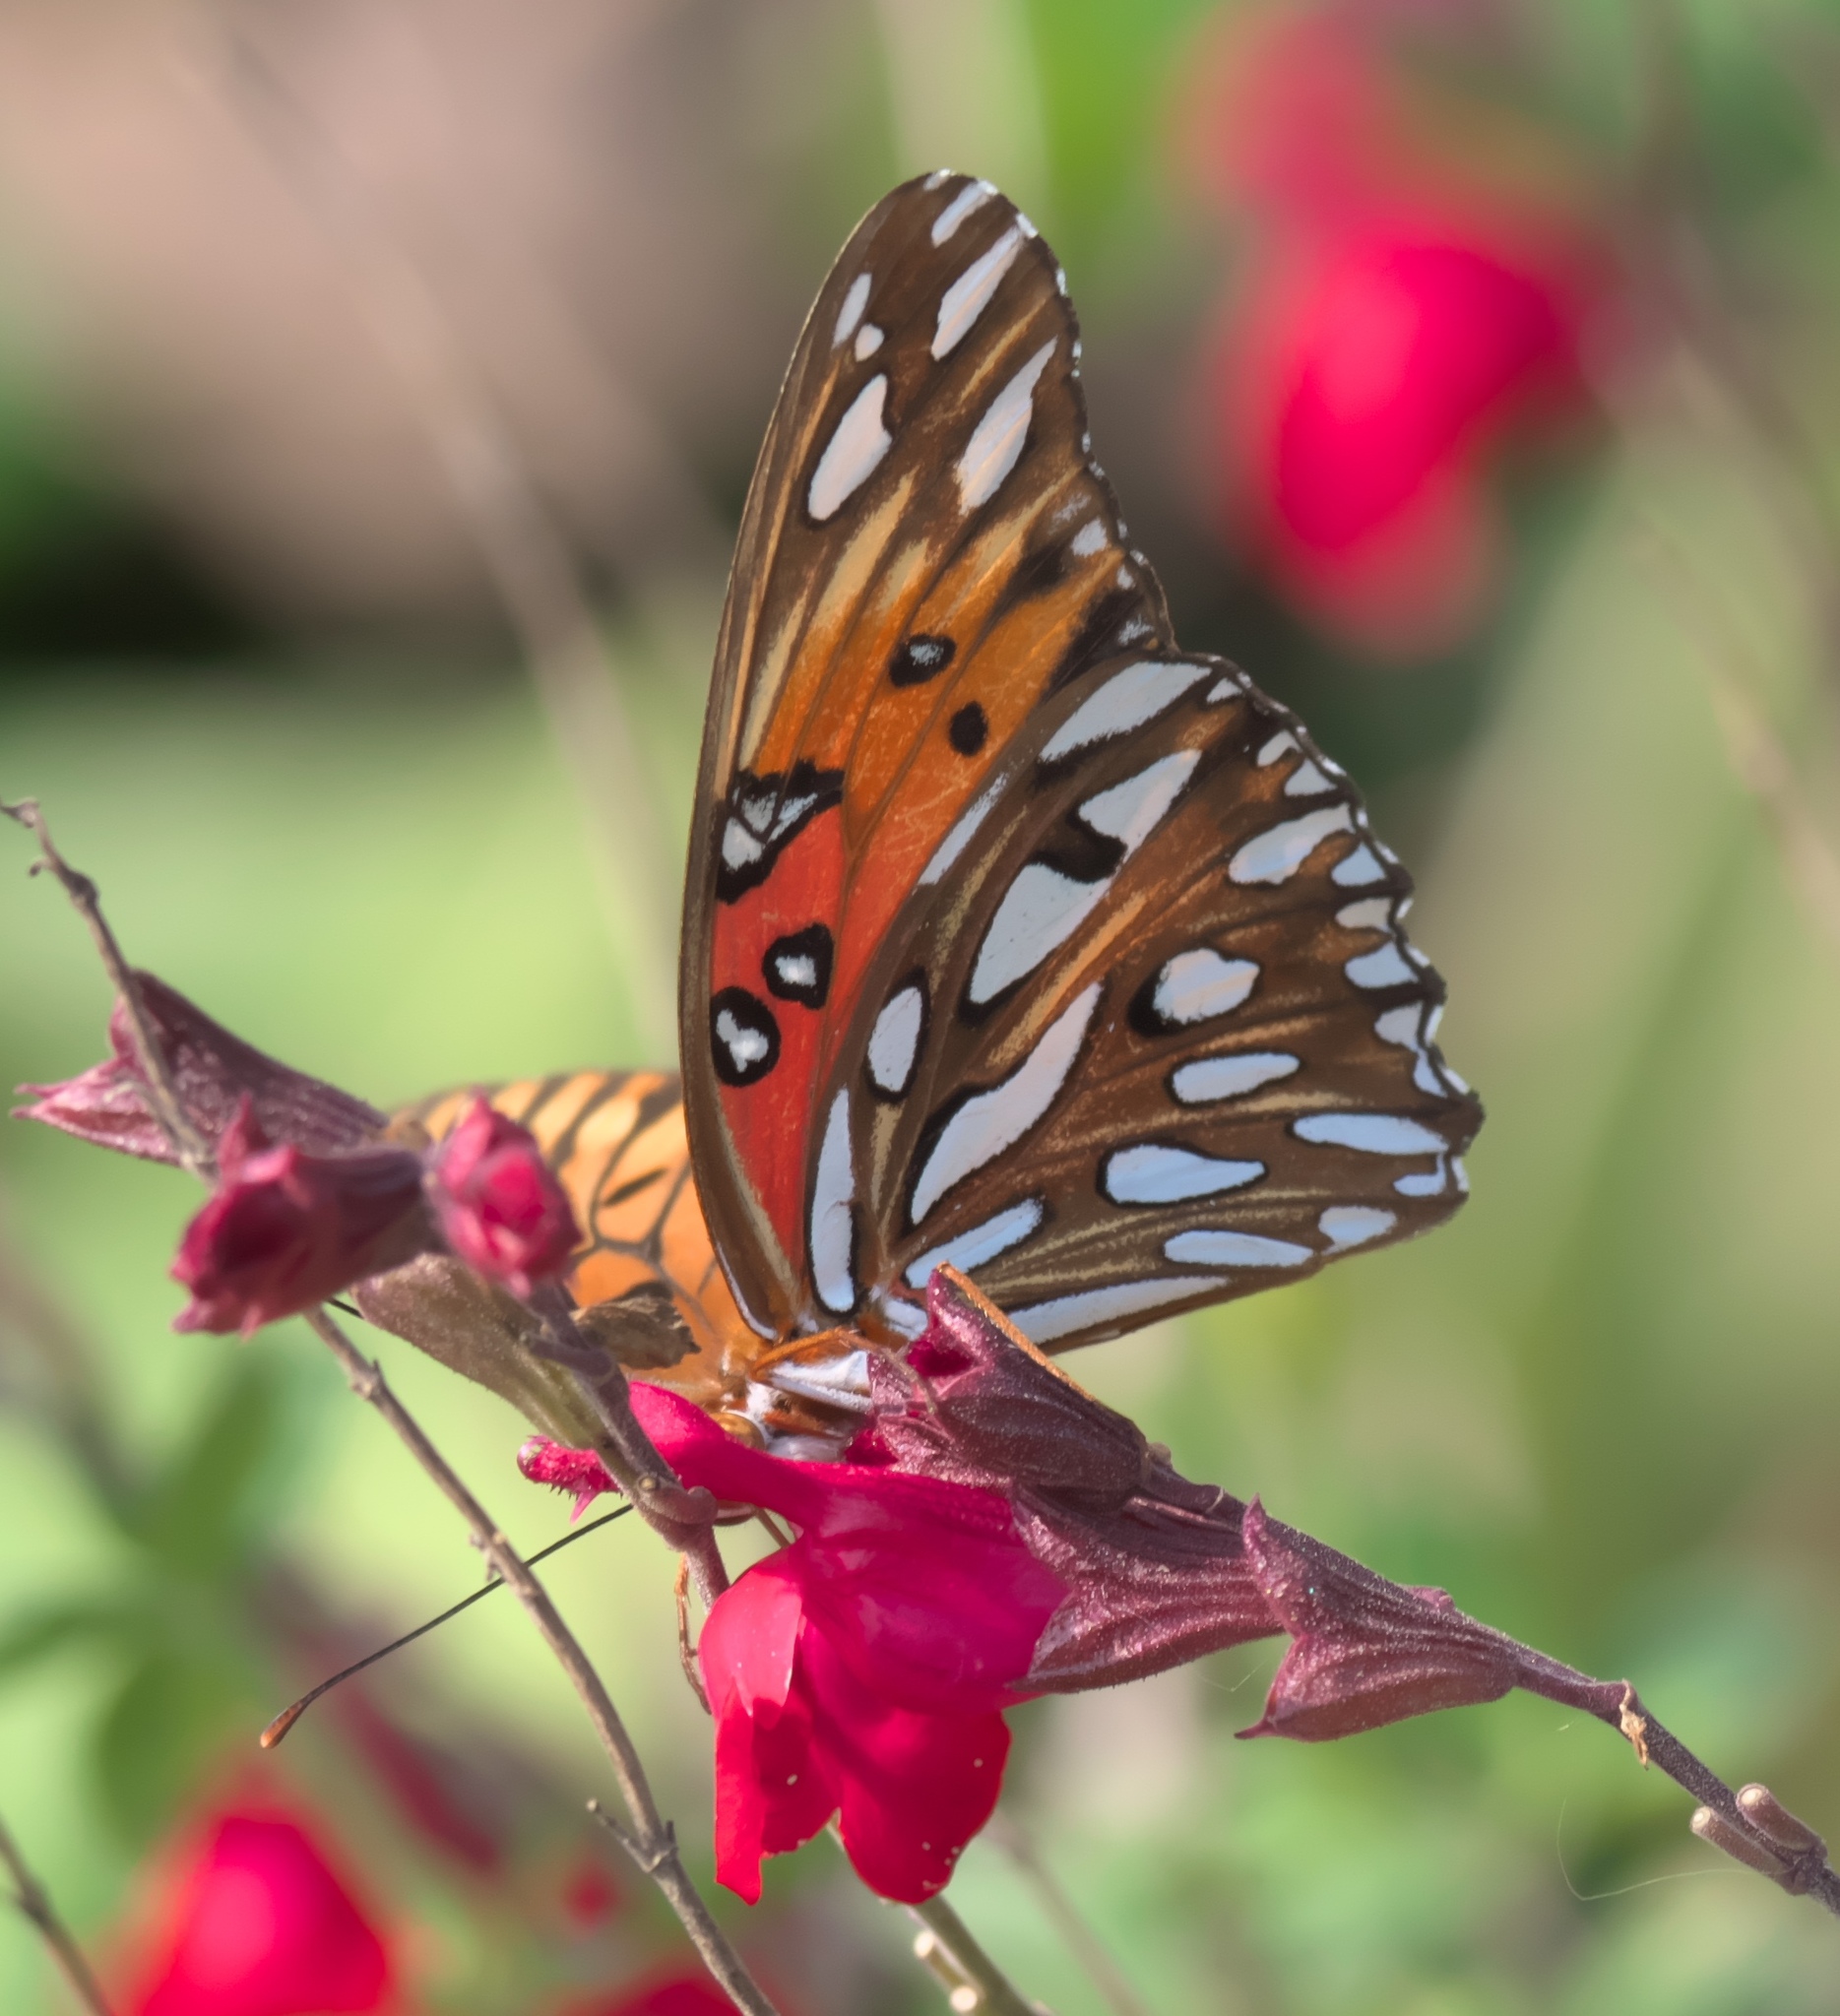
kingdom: Animalia
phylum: Arthropoda
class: Insecta
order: Lepidoptera
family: Nymphalidae
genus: Dione
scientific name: Dione vanillae
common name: Gulf fritillary
